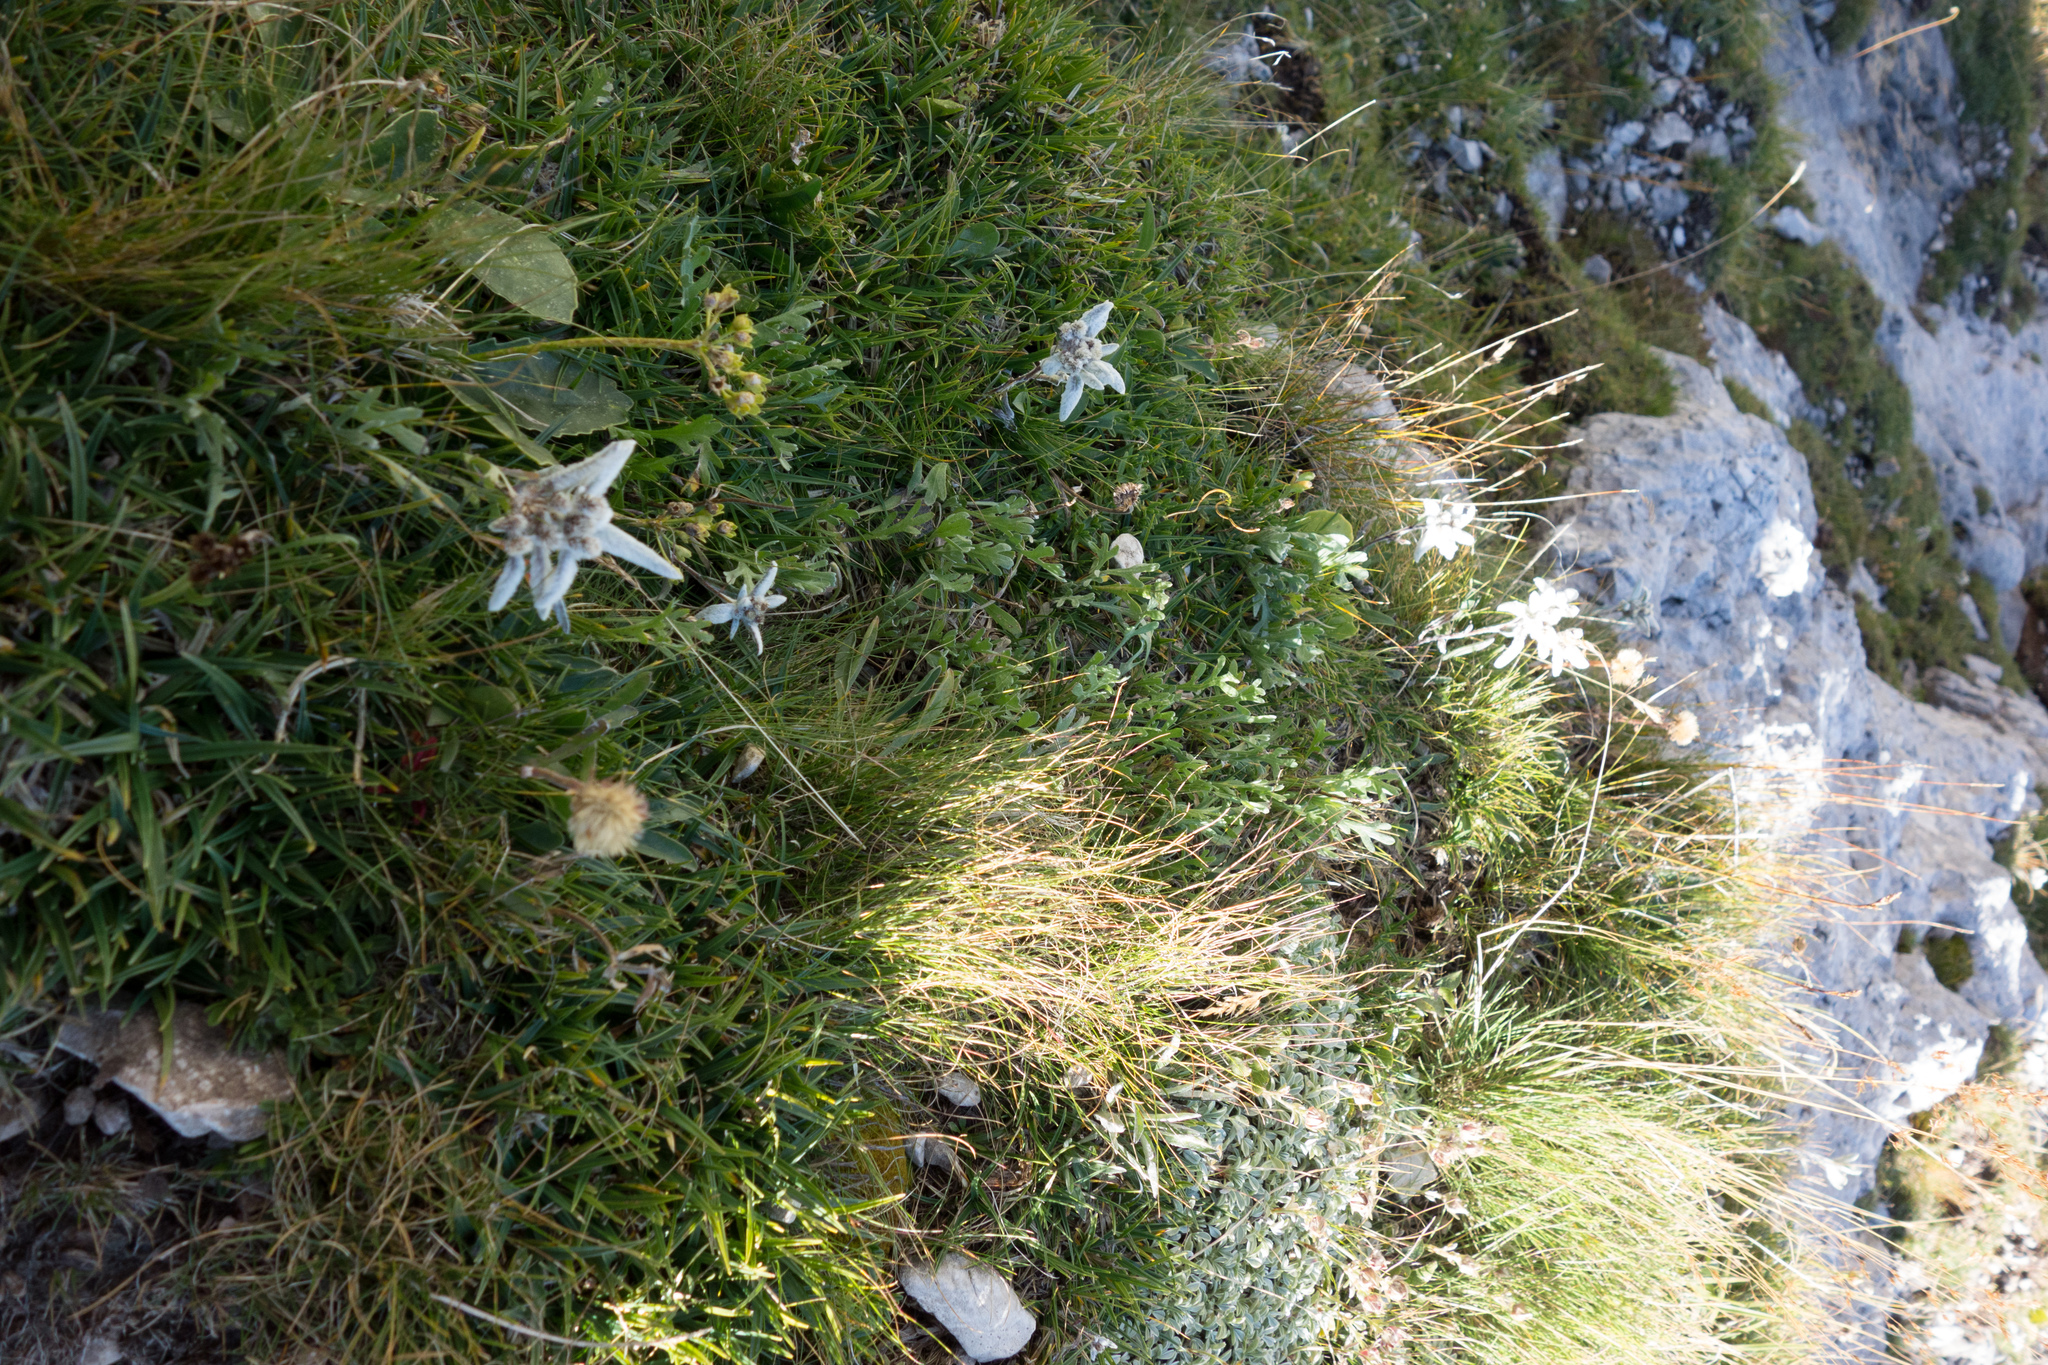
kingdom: Plantae
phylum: Tracheophyta
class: Magnoliopsida
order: Asterales
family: Asteraceae
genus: Leontopodium
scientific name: Leontopodium nivale
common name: Edelweiss
